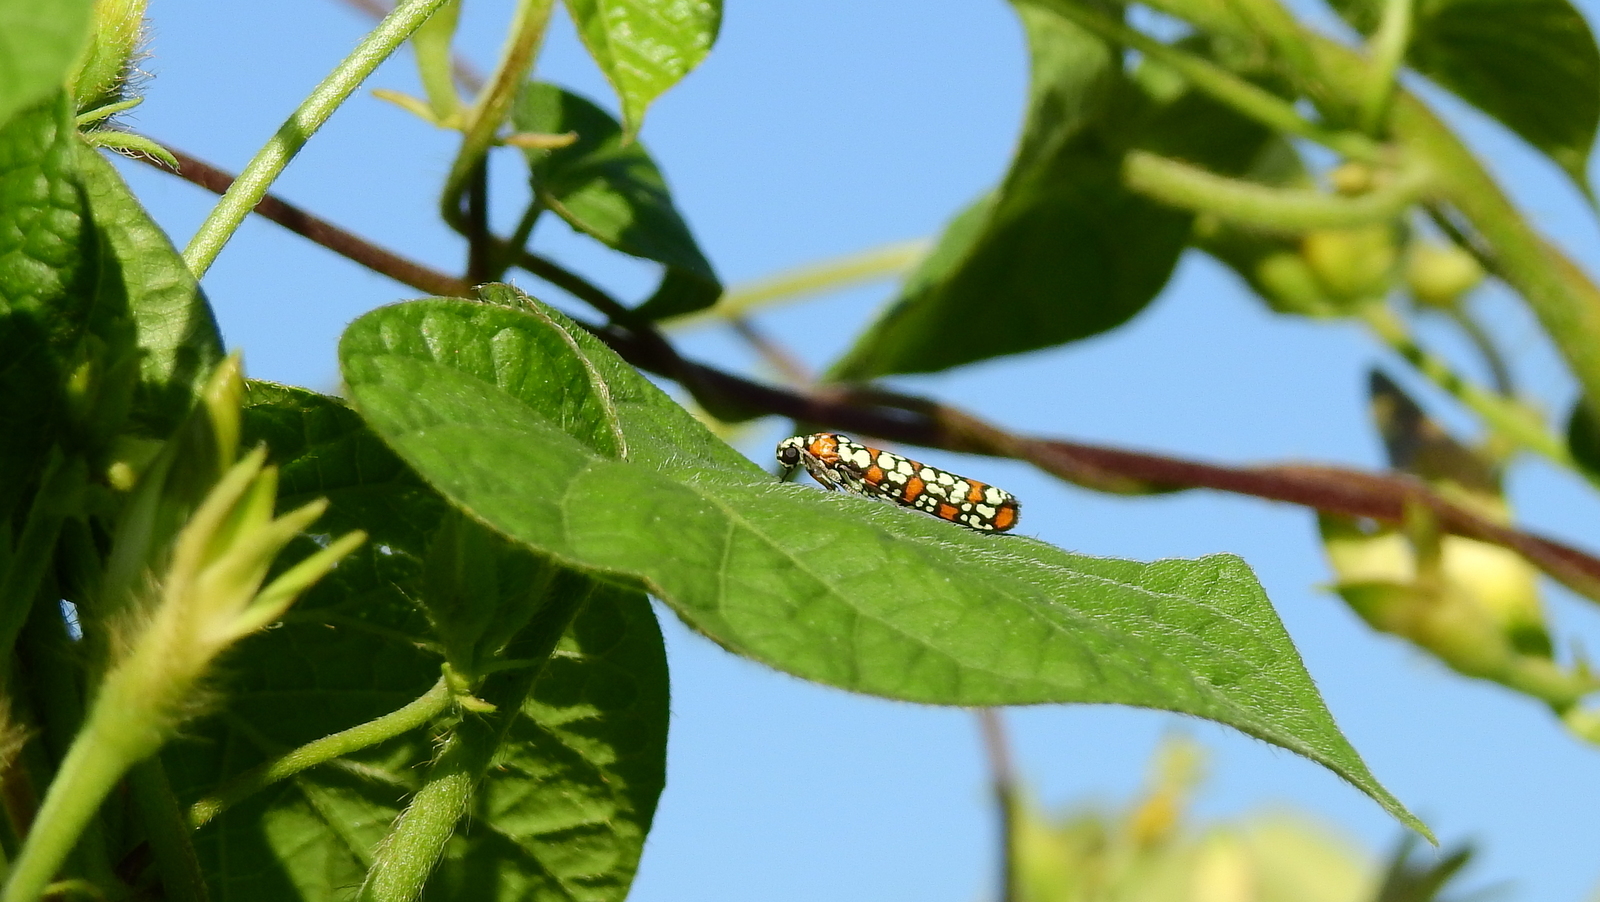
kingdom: Animalia
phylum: Arthropoda
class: Insecta
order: Lepidoptera
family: Attevidae
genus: Atteva
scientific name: Atteva punctella
